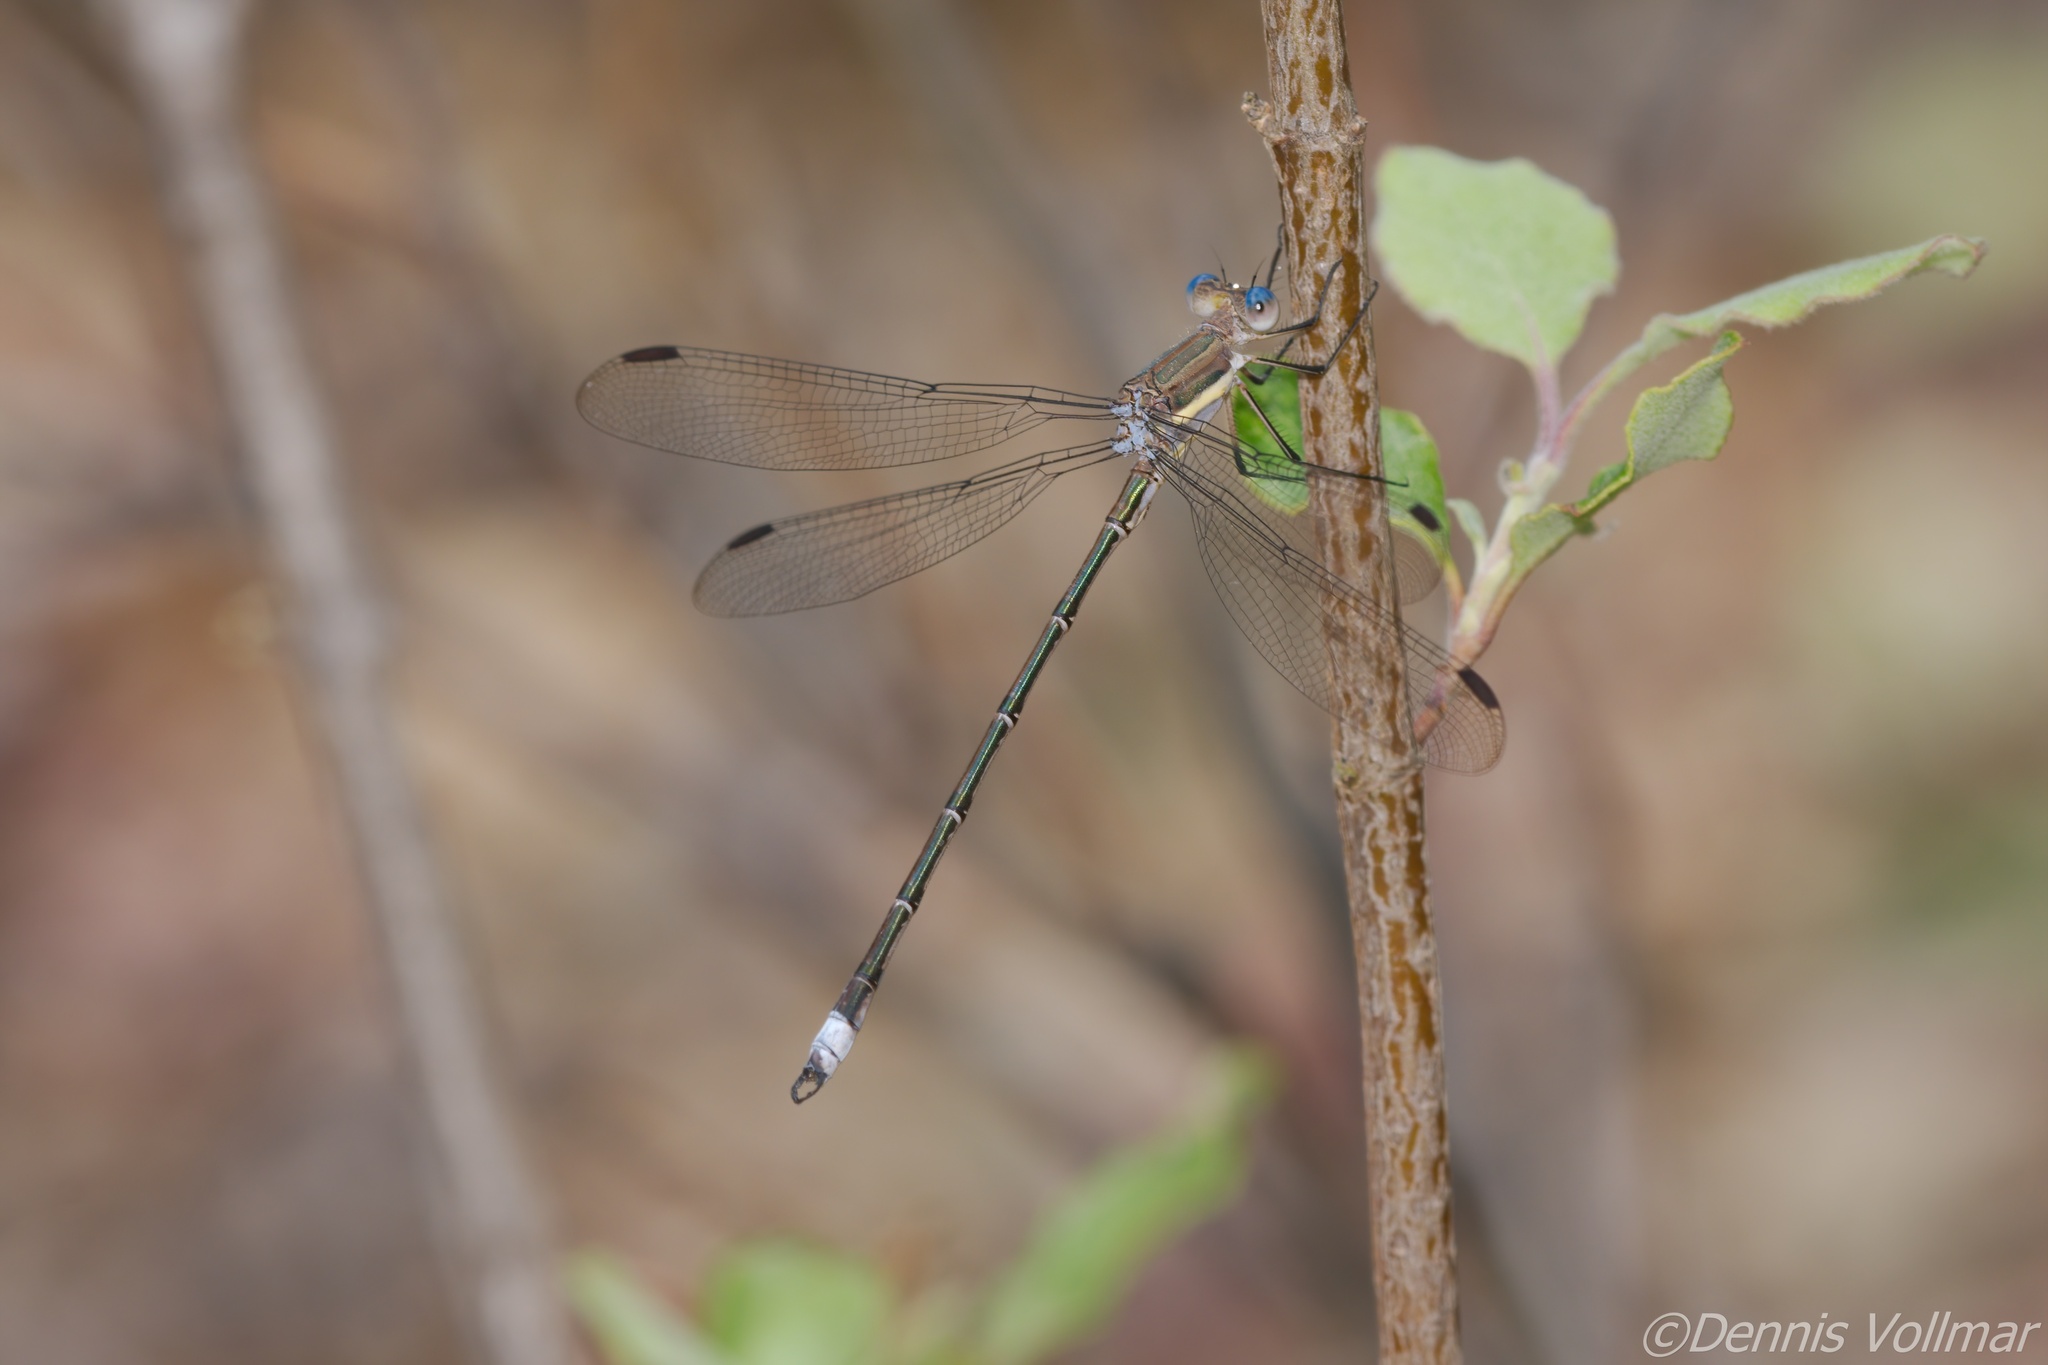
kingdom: Animalia
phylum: Arthropoda
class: Insecta
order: Odonata
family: Lestidae
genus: Archilestes
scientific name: Archilestes grandis
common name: Great spreadwing
